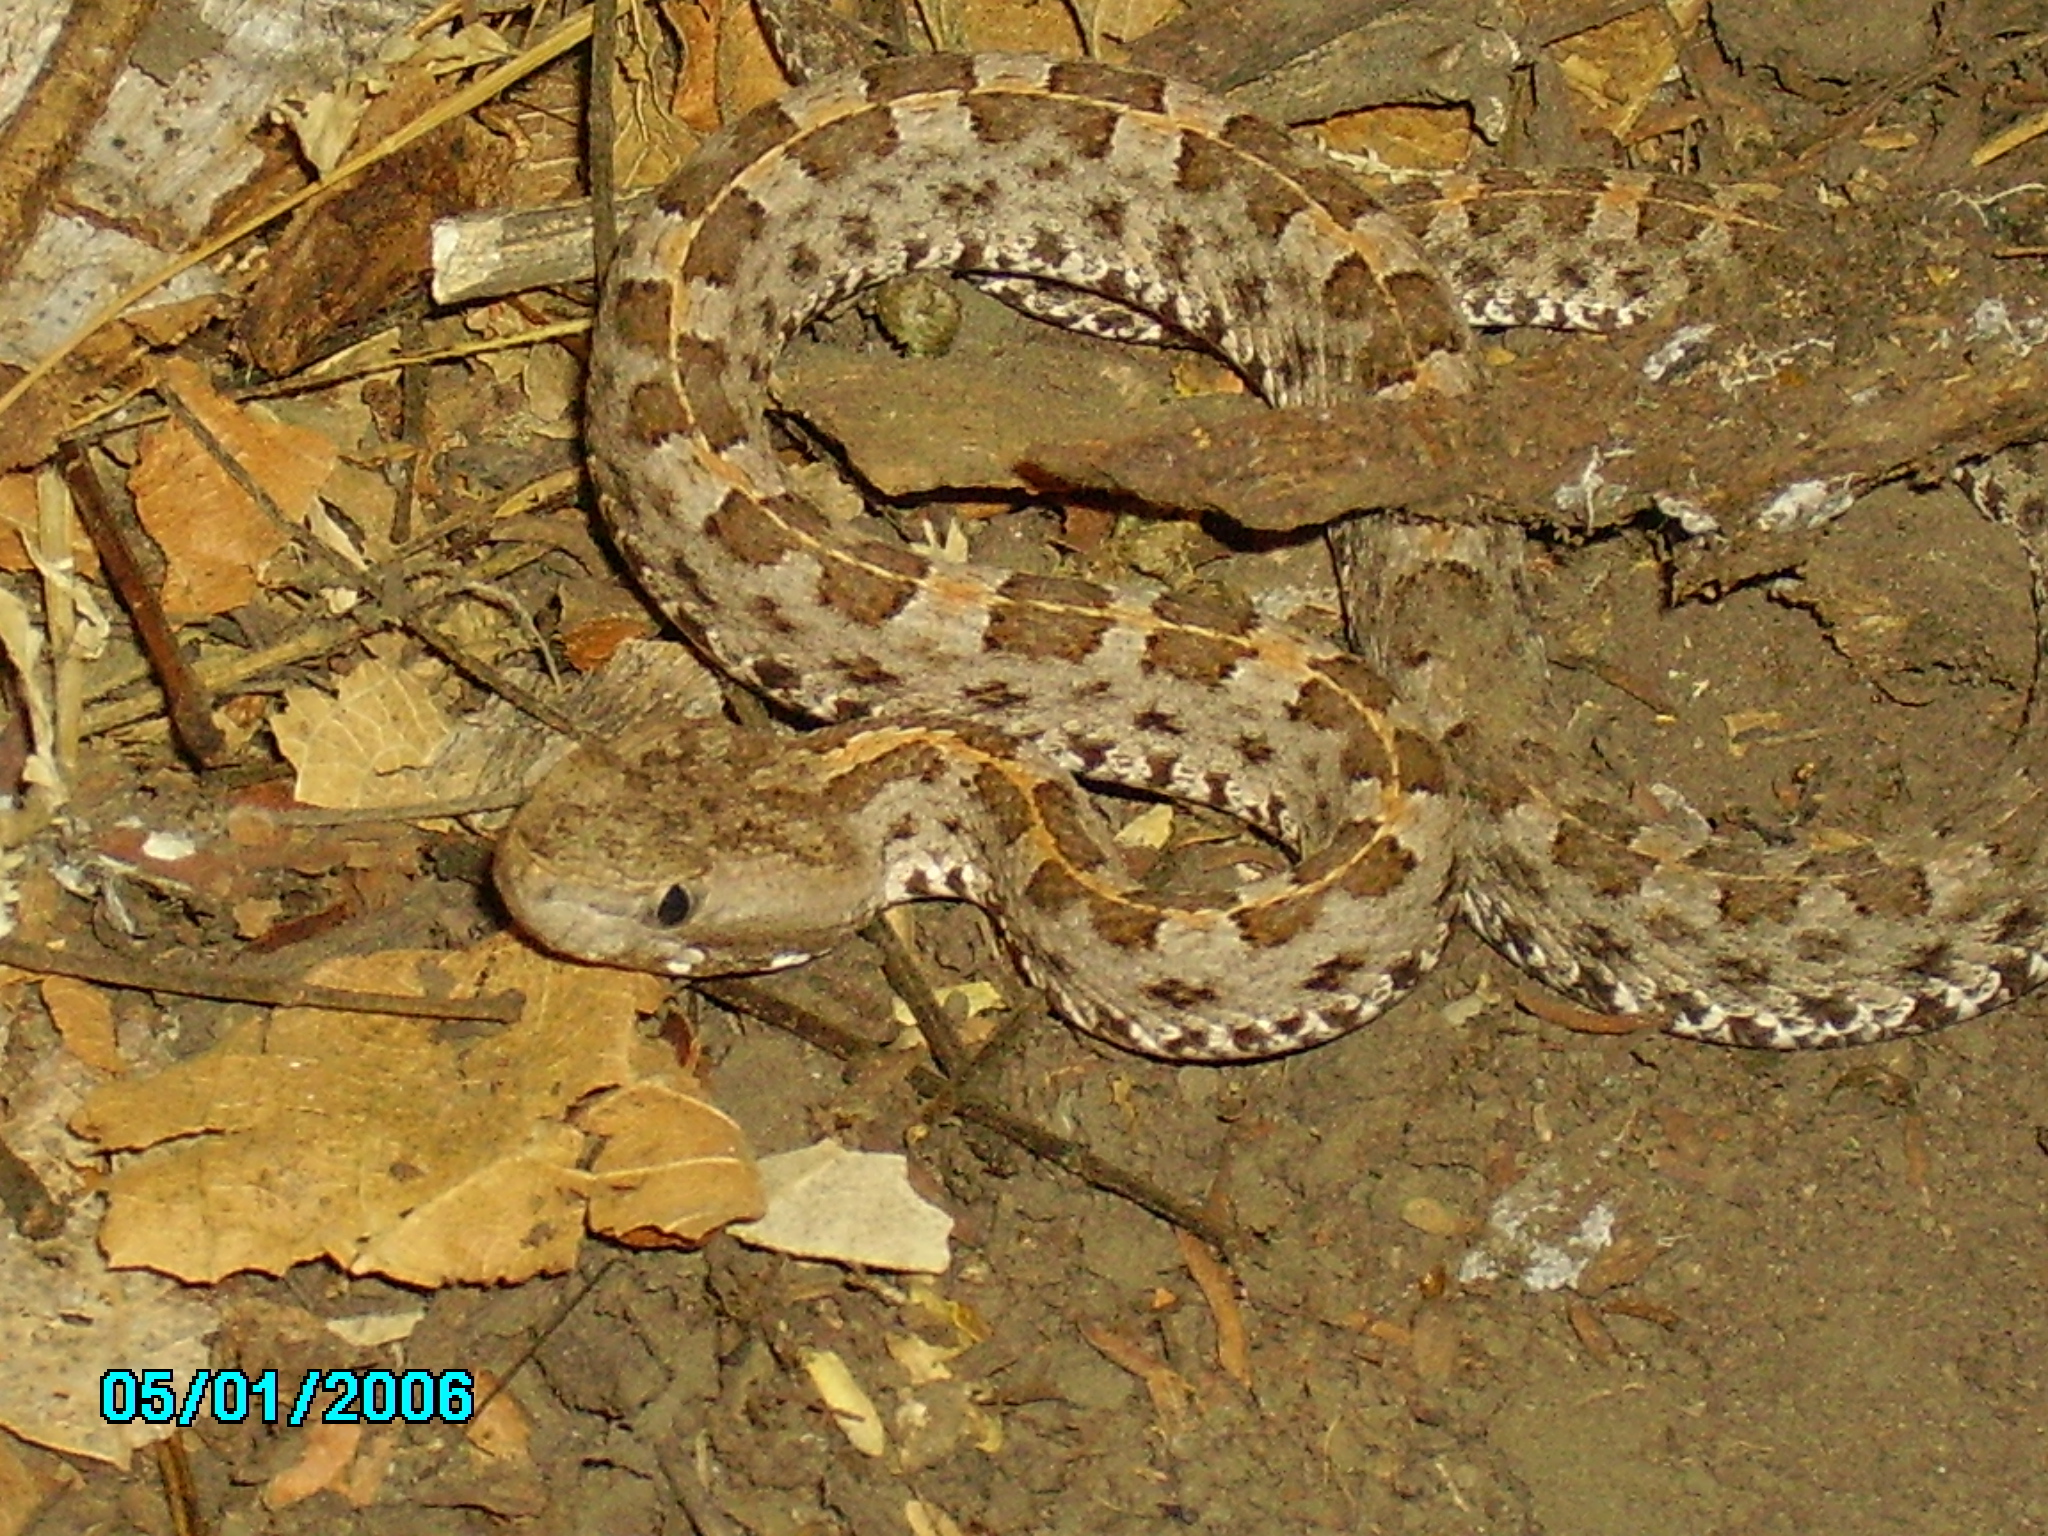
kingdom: Animalia
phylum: Chordata
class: Squamata
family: Viperidae
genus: Porthidium
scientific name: Porthidium ophryomegas
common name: Slender hognose viper
